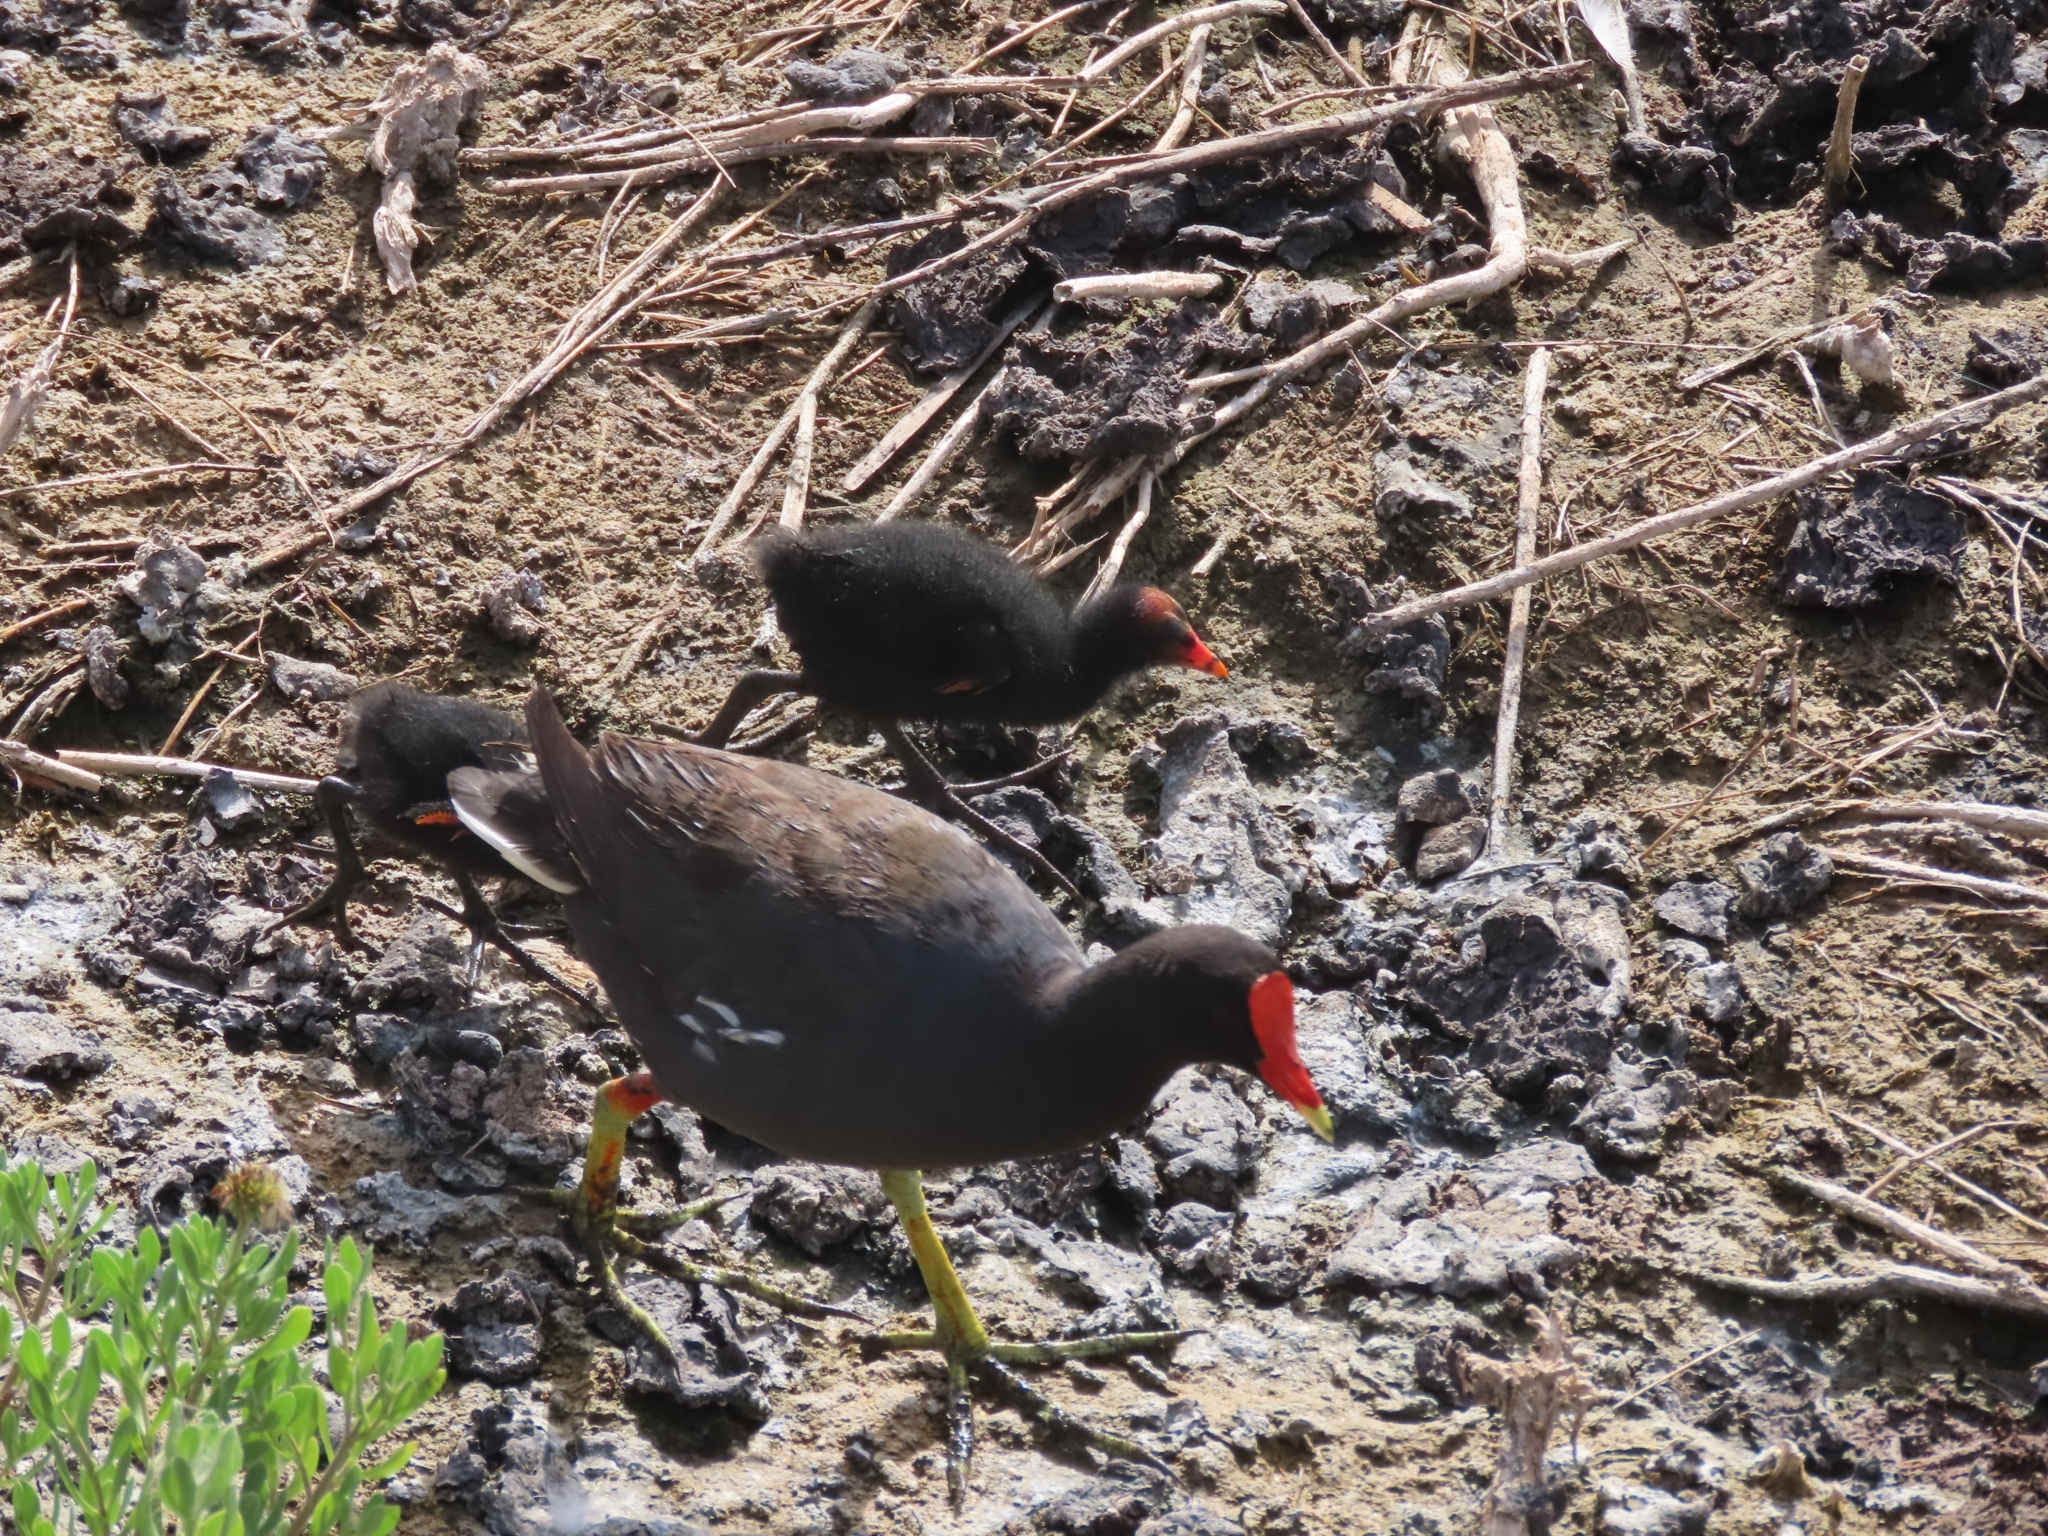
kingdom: Animalia
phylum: Chordata
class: Aves
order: Gruiformes
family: Rallidae
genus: Gallinula
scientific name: Gallinula chloropus
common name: Common moorhen
